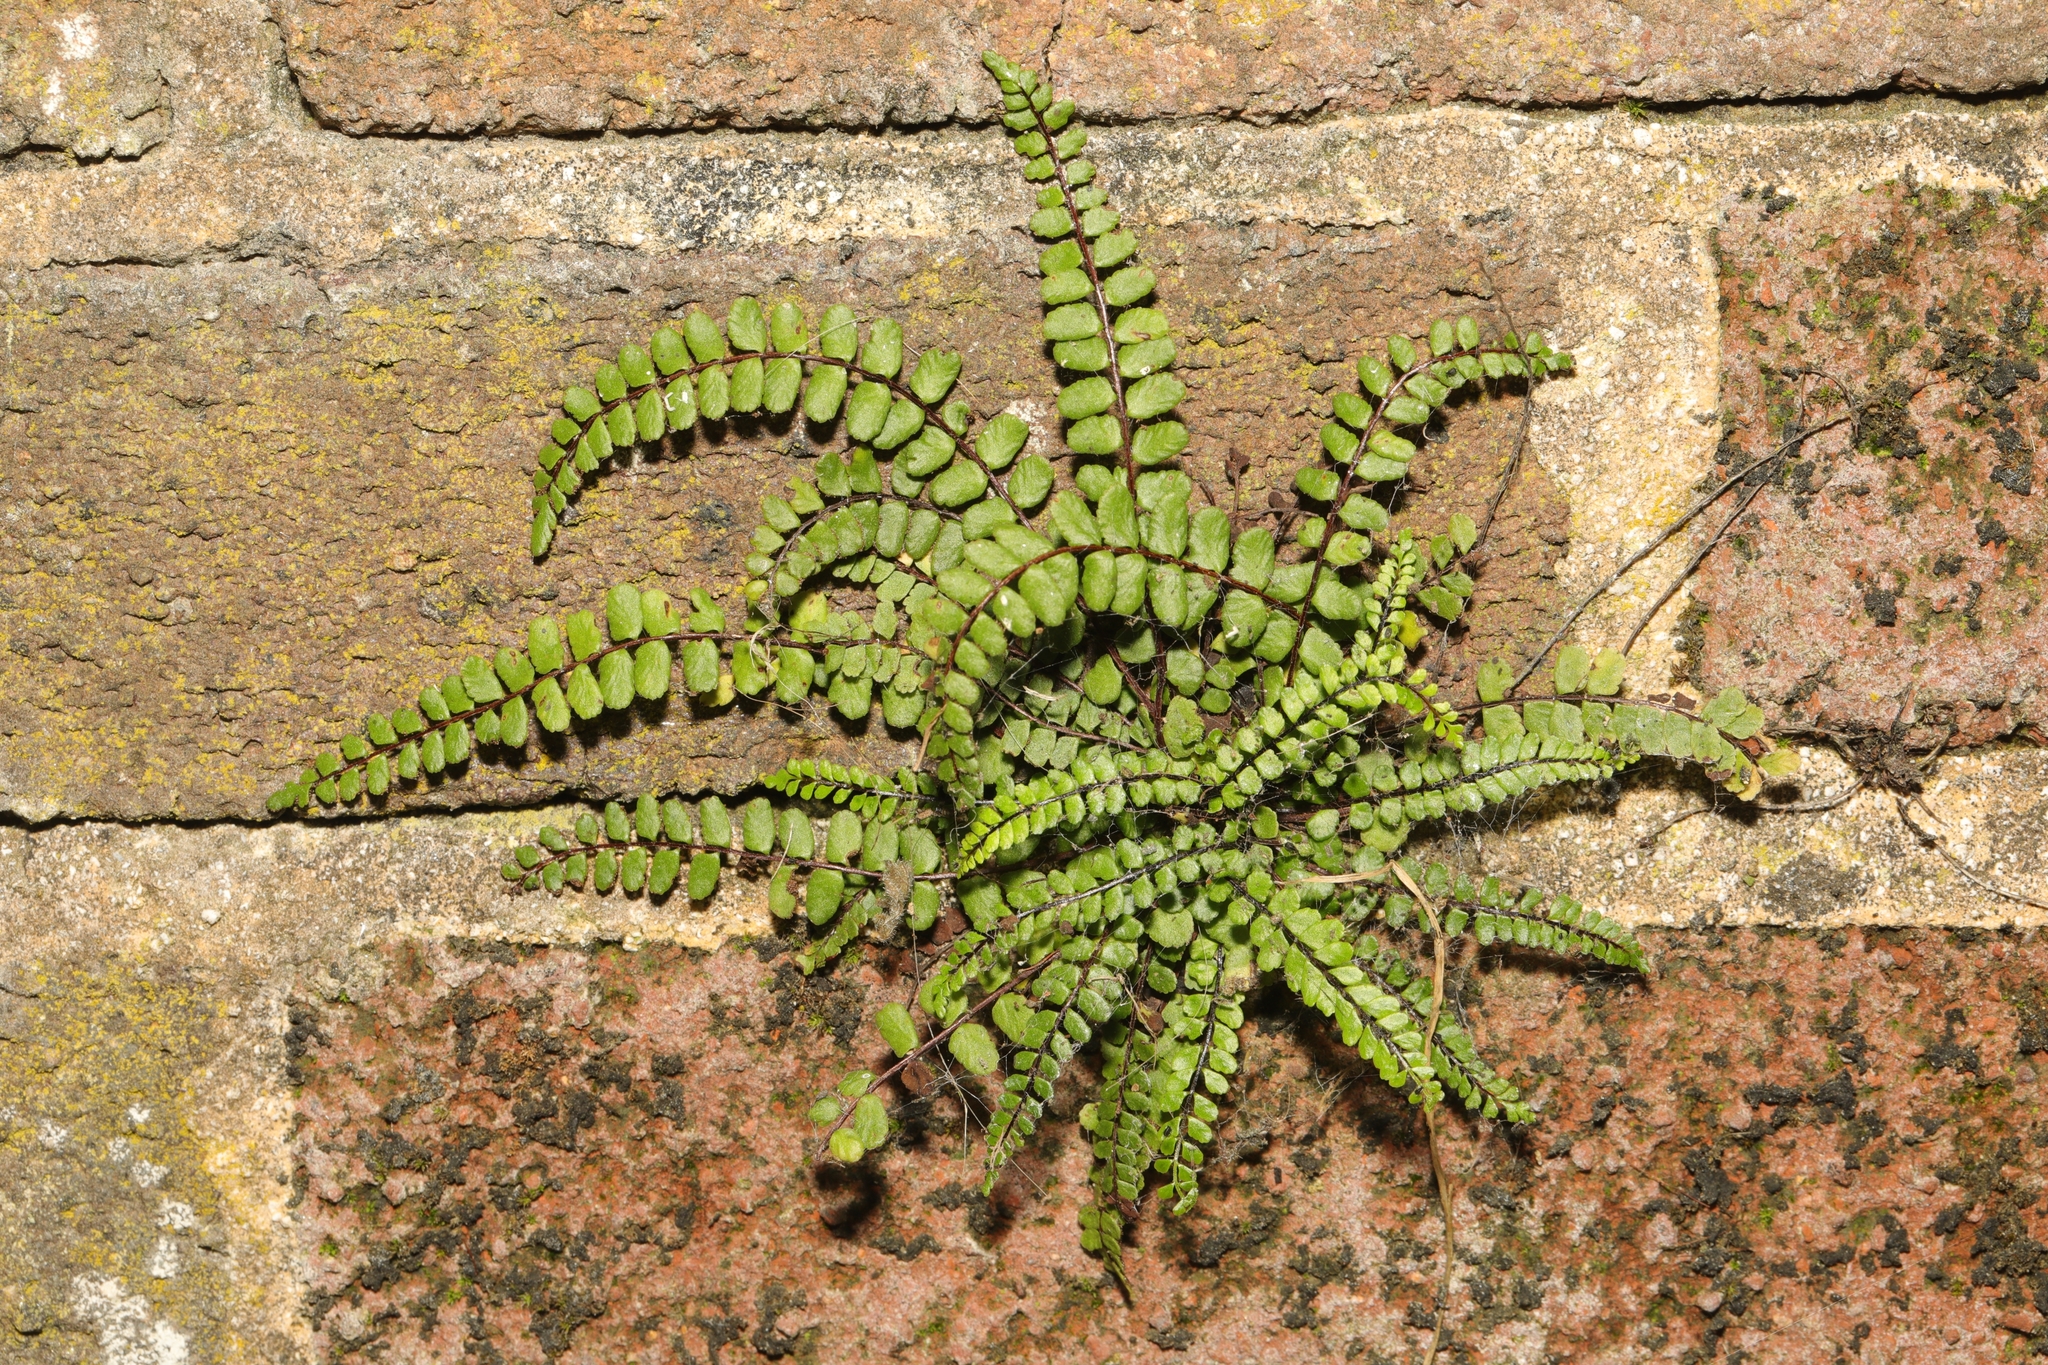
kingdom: Plantae
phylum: Tracheophyta
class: Polypodiopsida
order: Polypodiales
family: Aspleniaceae
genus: Asplenium
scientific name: Asplenium trichomanes
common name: Maidenhair spleenwort
